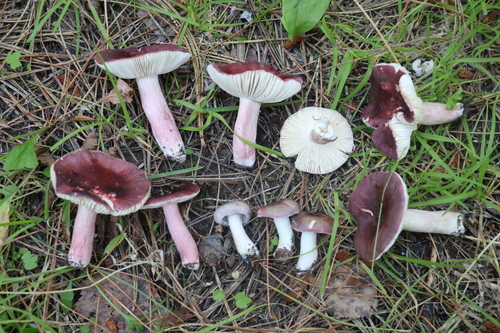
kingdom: Fungi
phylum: Basidiomycota
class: Agaricomycetes
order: Russulales
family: Russulaceae
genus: Russula
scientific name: Russula queletii
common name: Fruity brittlegill
